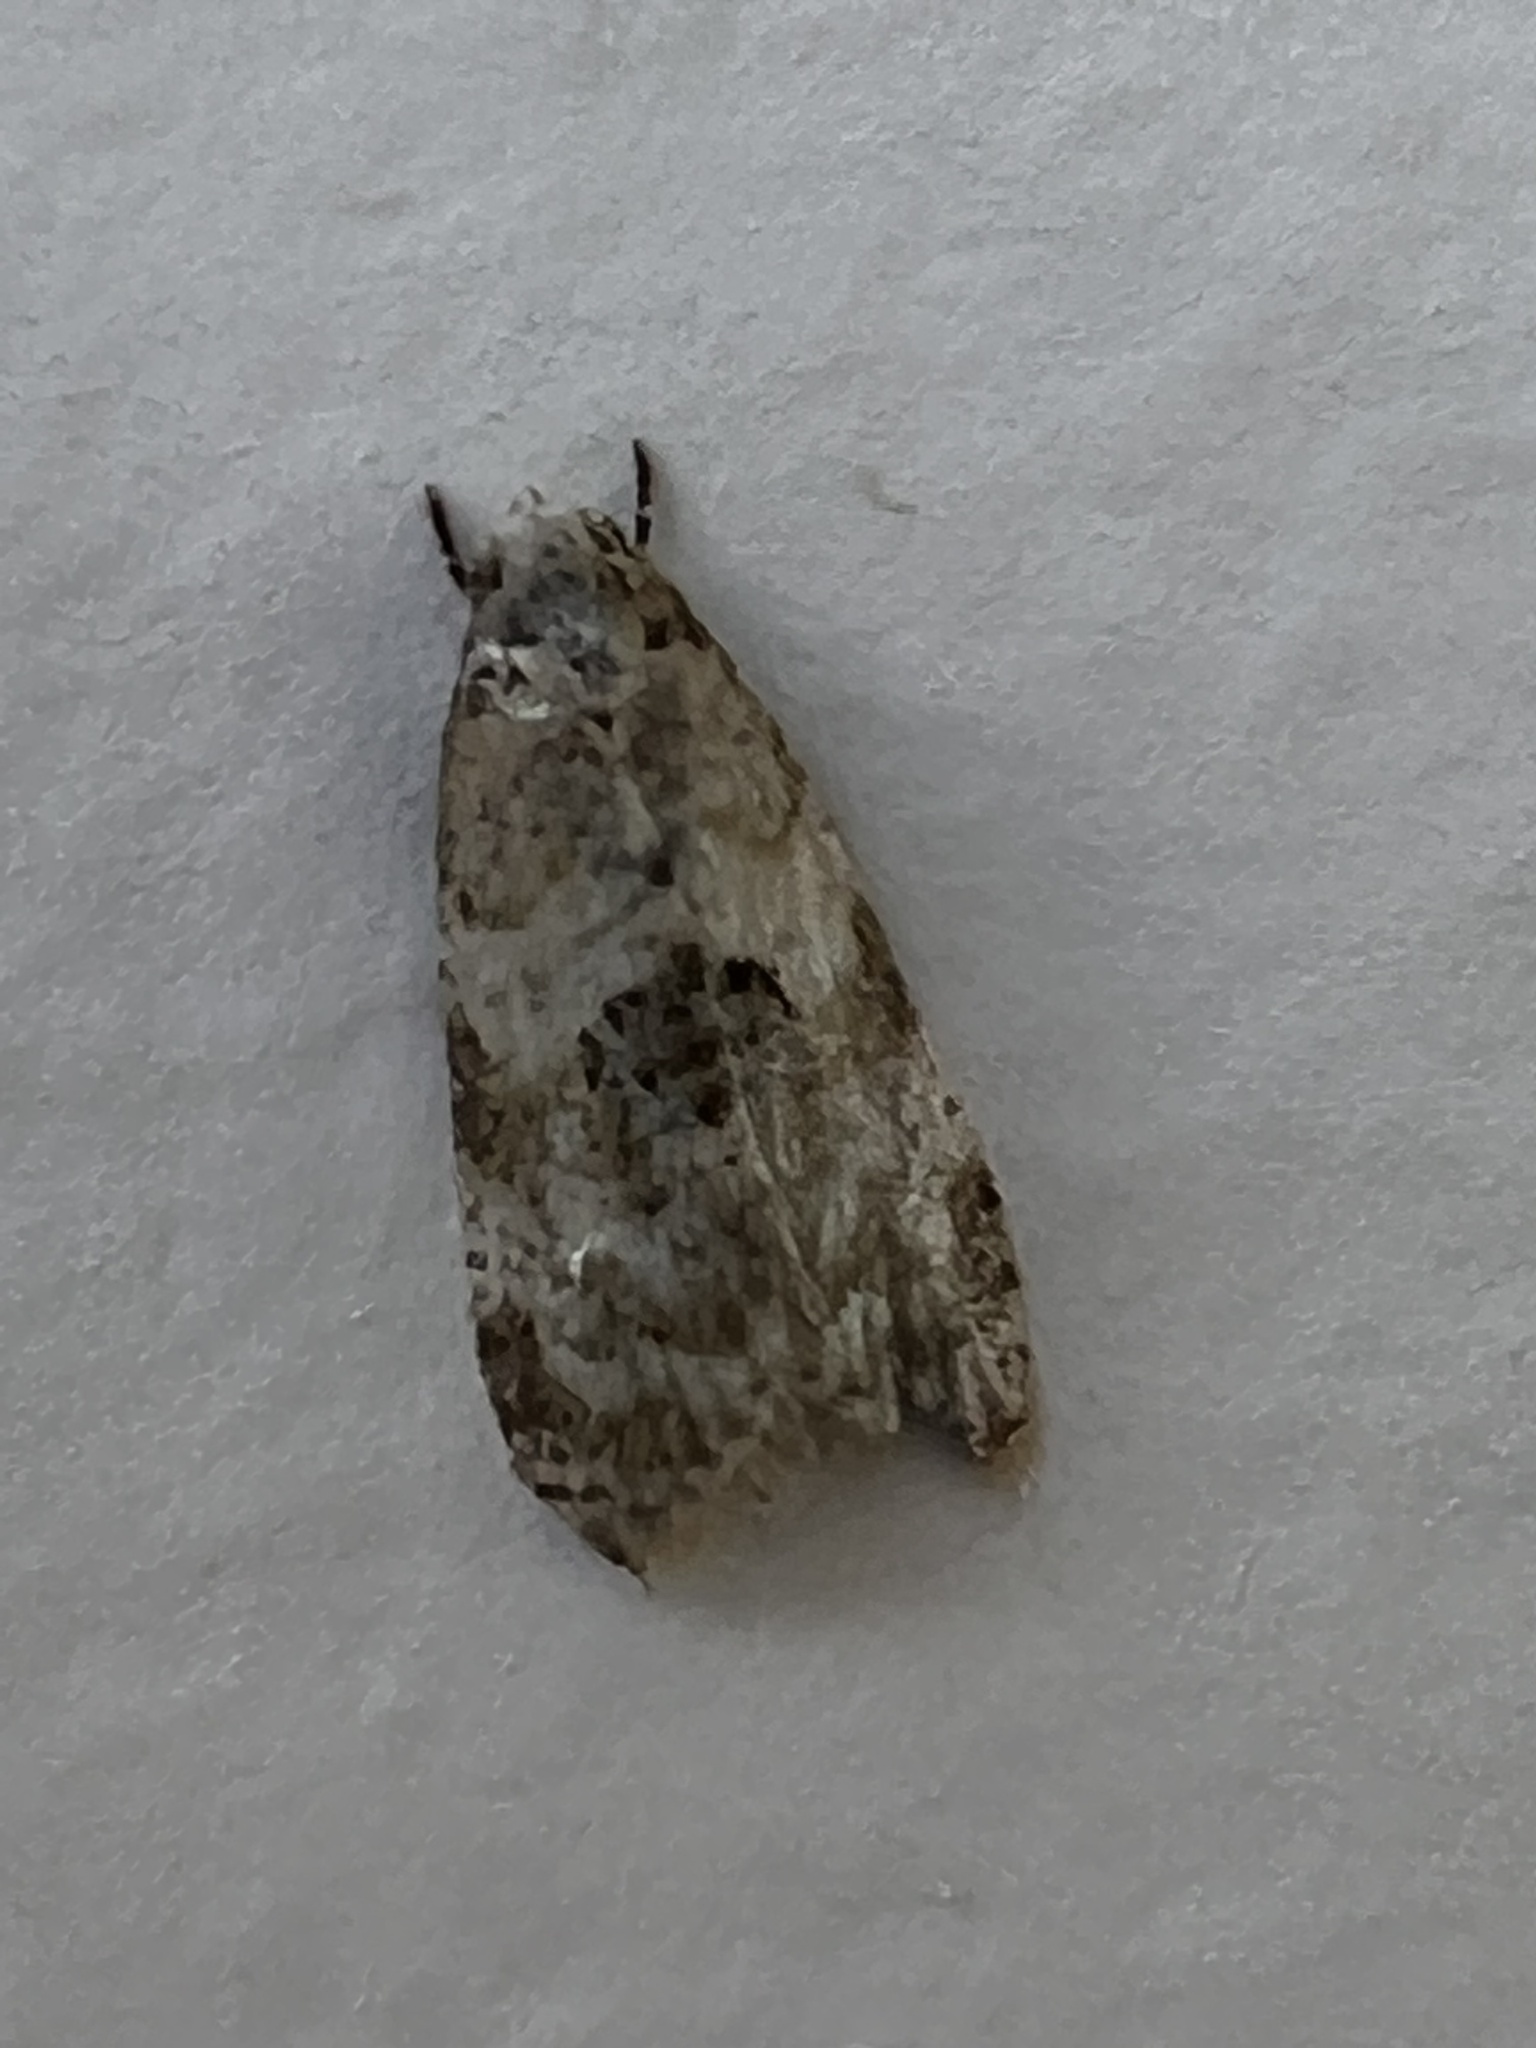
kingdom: Animalia
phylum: Arthropoda
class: Insecta
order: Lepidoptera
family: Tortricidae
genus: Dipterina
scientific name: Dipterina imbriferana
